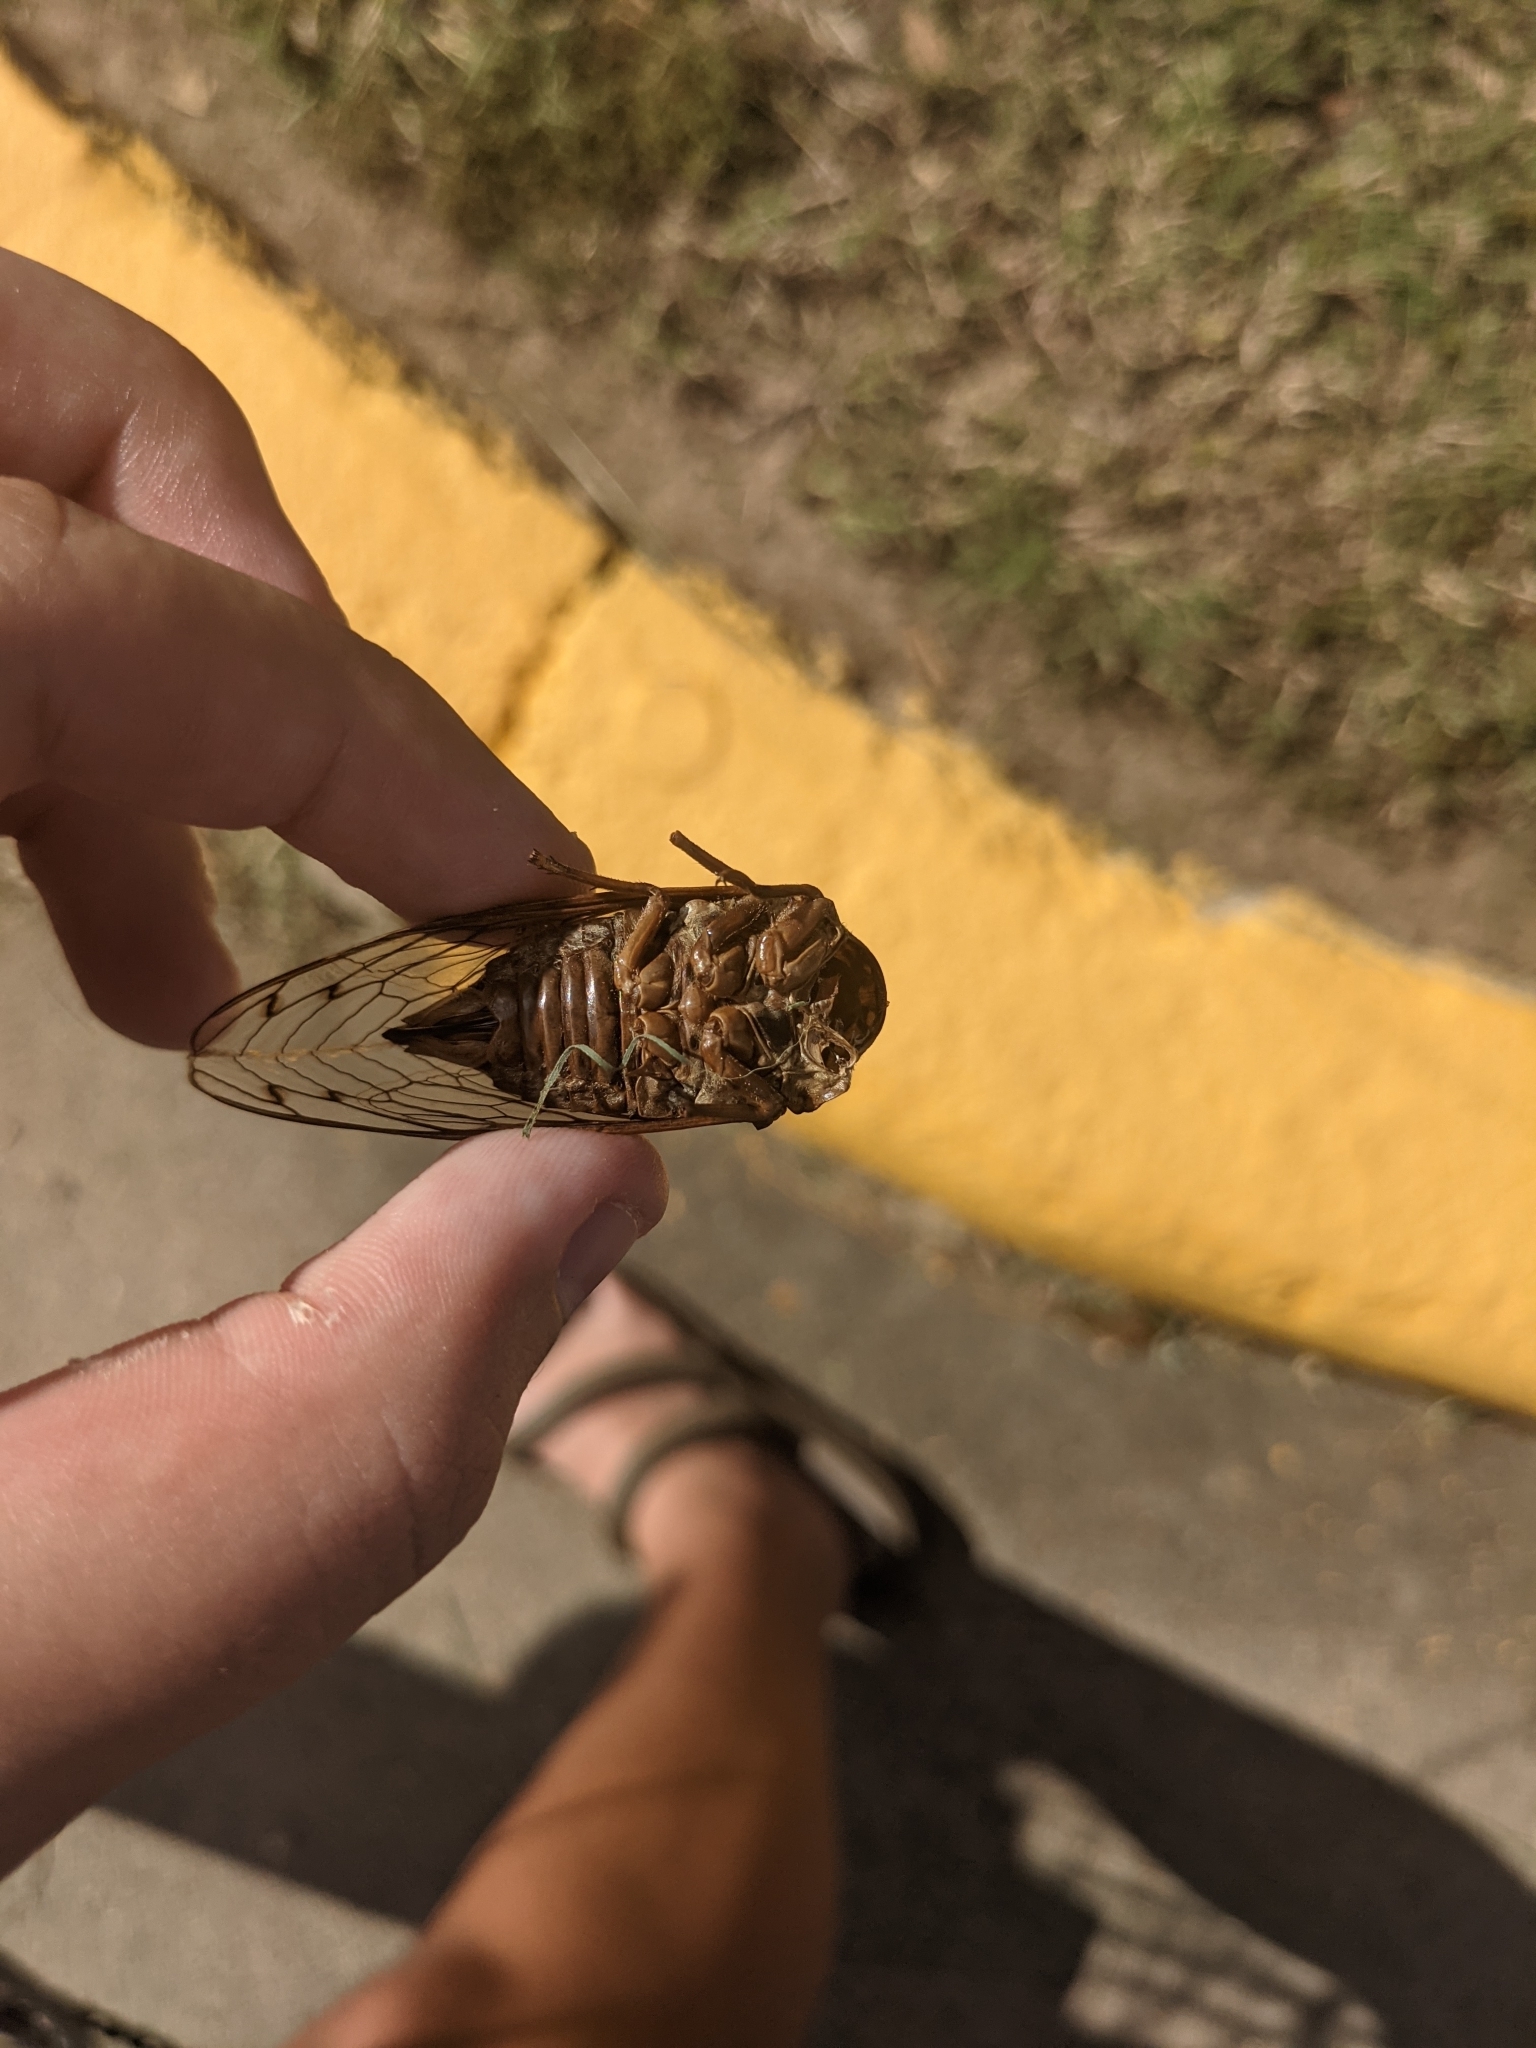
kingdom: Animalia
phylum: Arthropoda
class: Insecta
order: Hemiptera
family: Cicadidae
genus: Megatibicen
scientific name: Megatibicen resh
